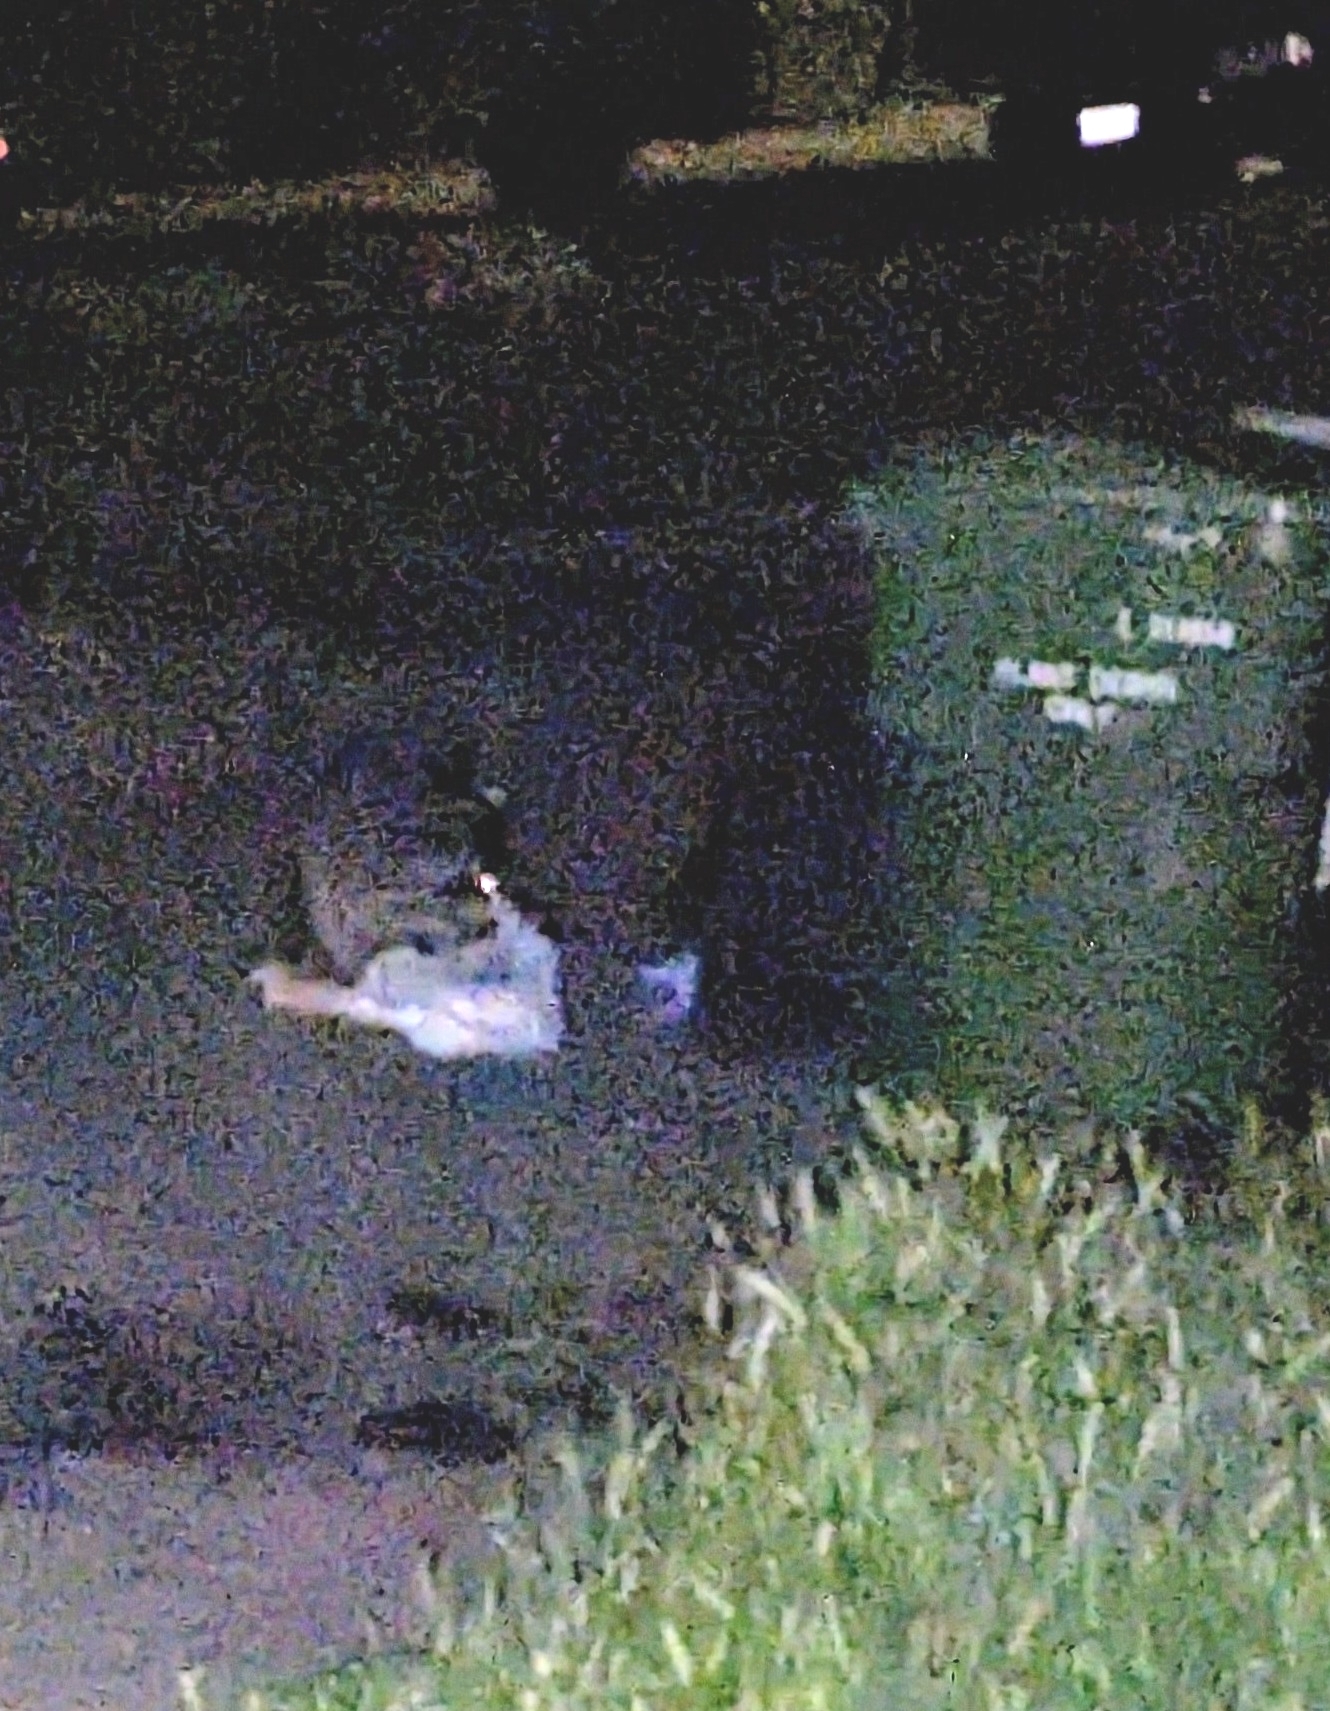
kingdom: Animalia
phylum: Chordata
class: Mammalia
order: Carnivora
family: Procyonidae
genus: Procyon
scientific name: Procyon lotor
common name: Raccoon
